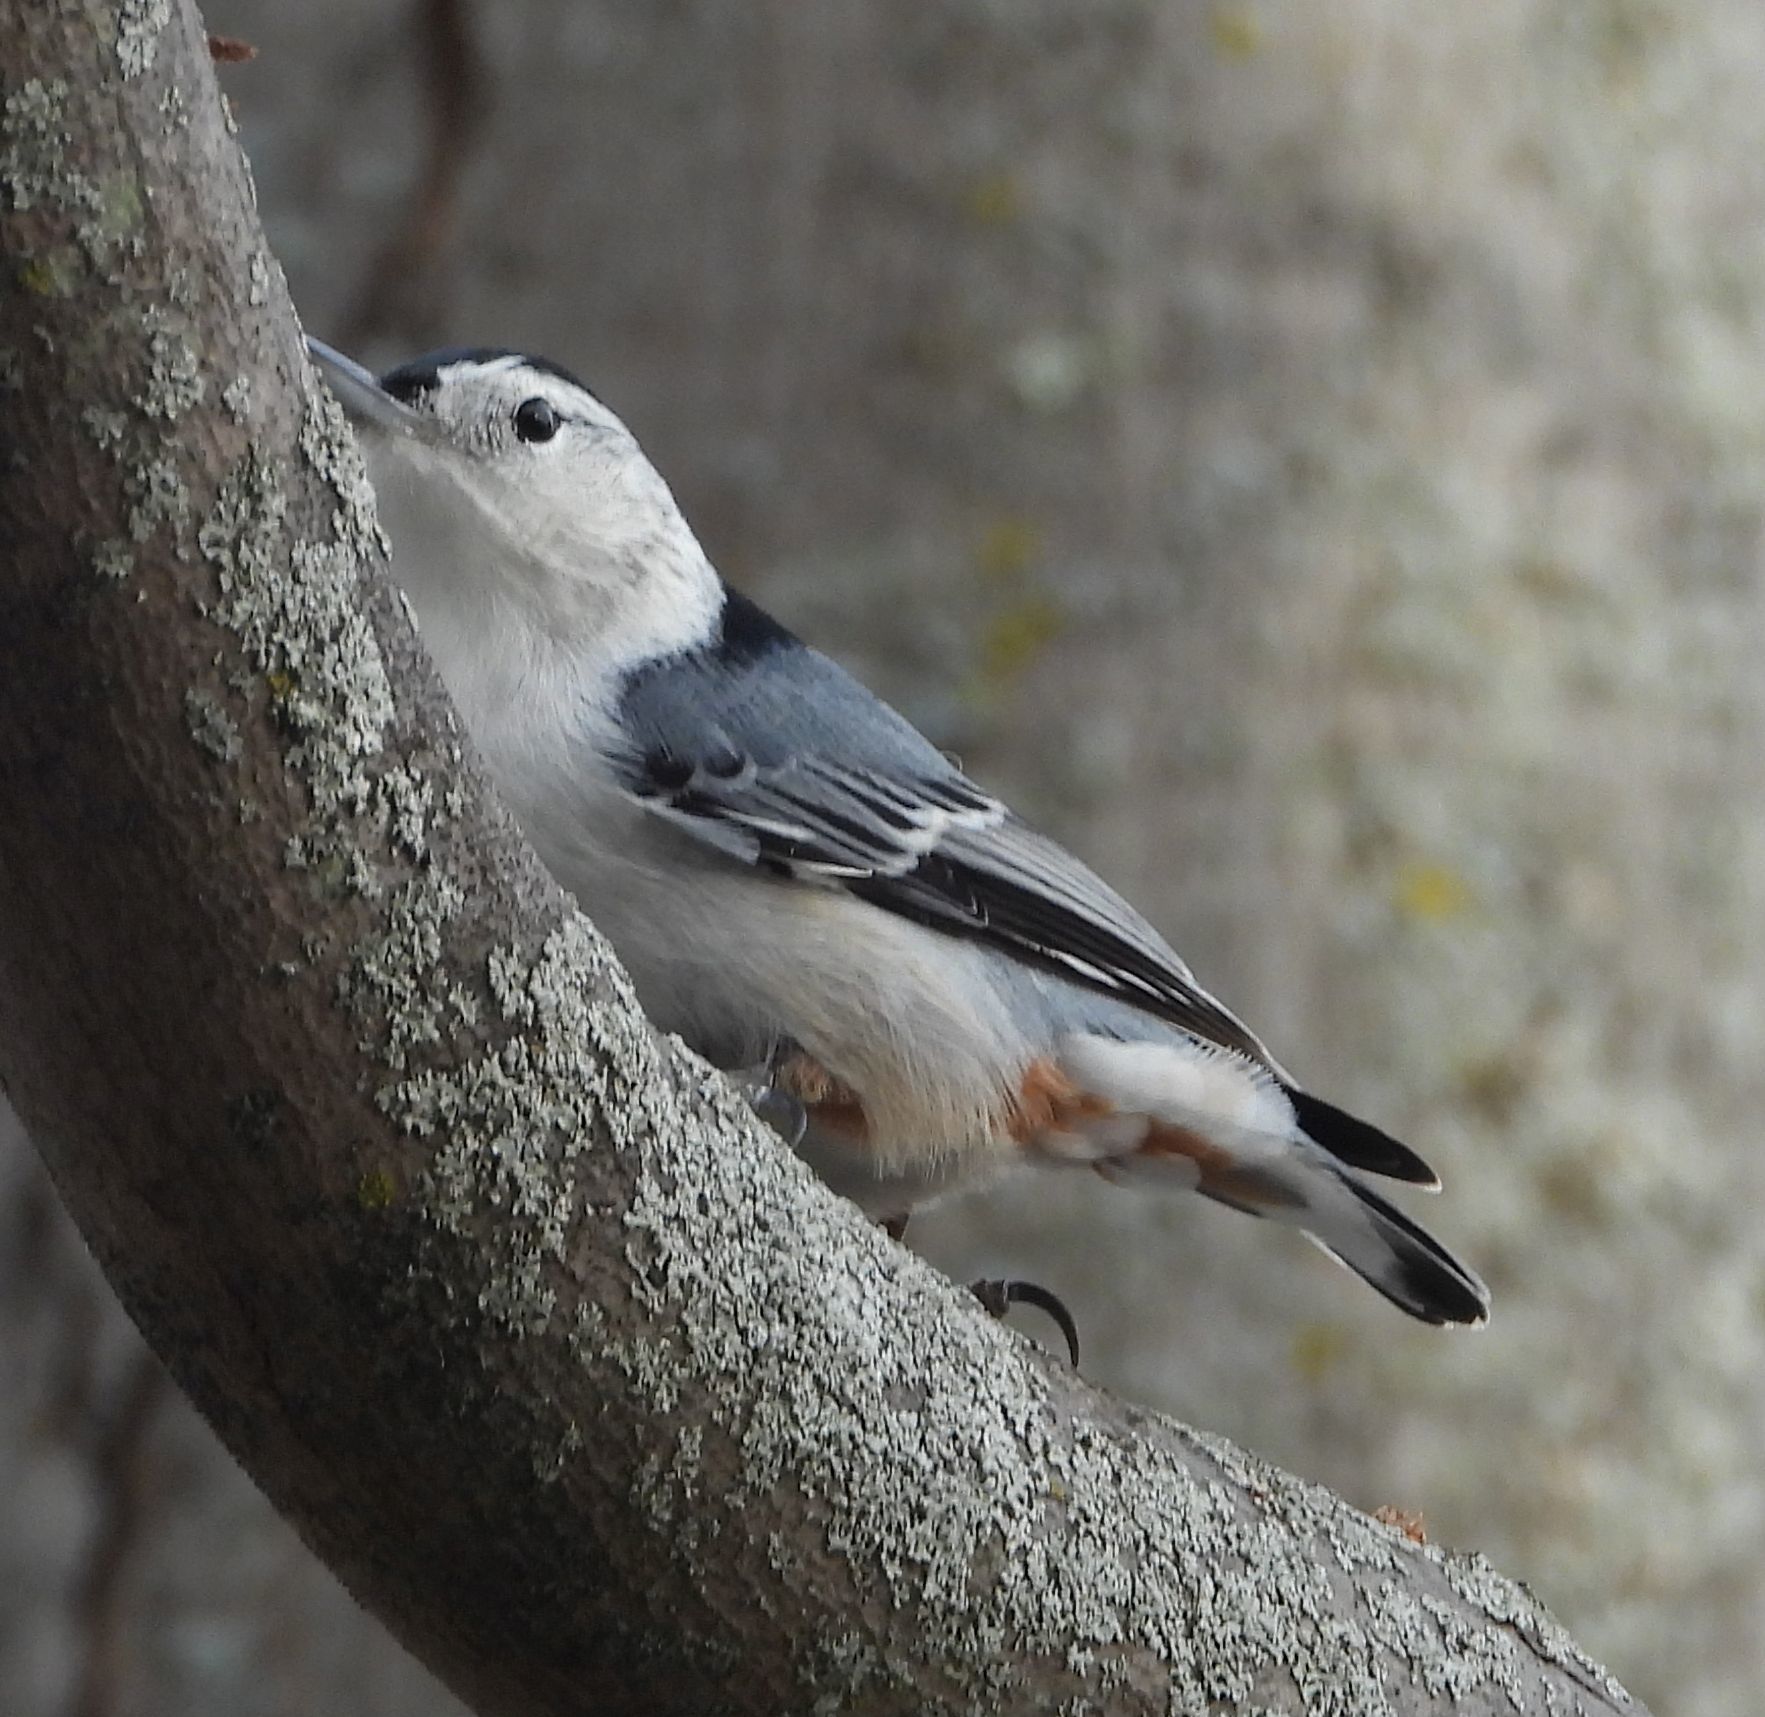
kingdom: Animalia
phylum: Chordata
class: Aves
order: Passeriformes
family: Sittidae
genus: Sitta
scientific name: Sitta carolinensis
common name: White-breasted nuthatch
